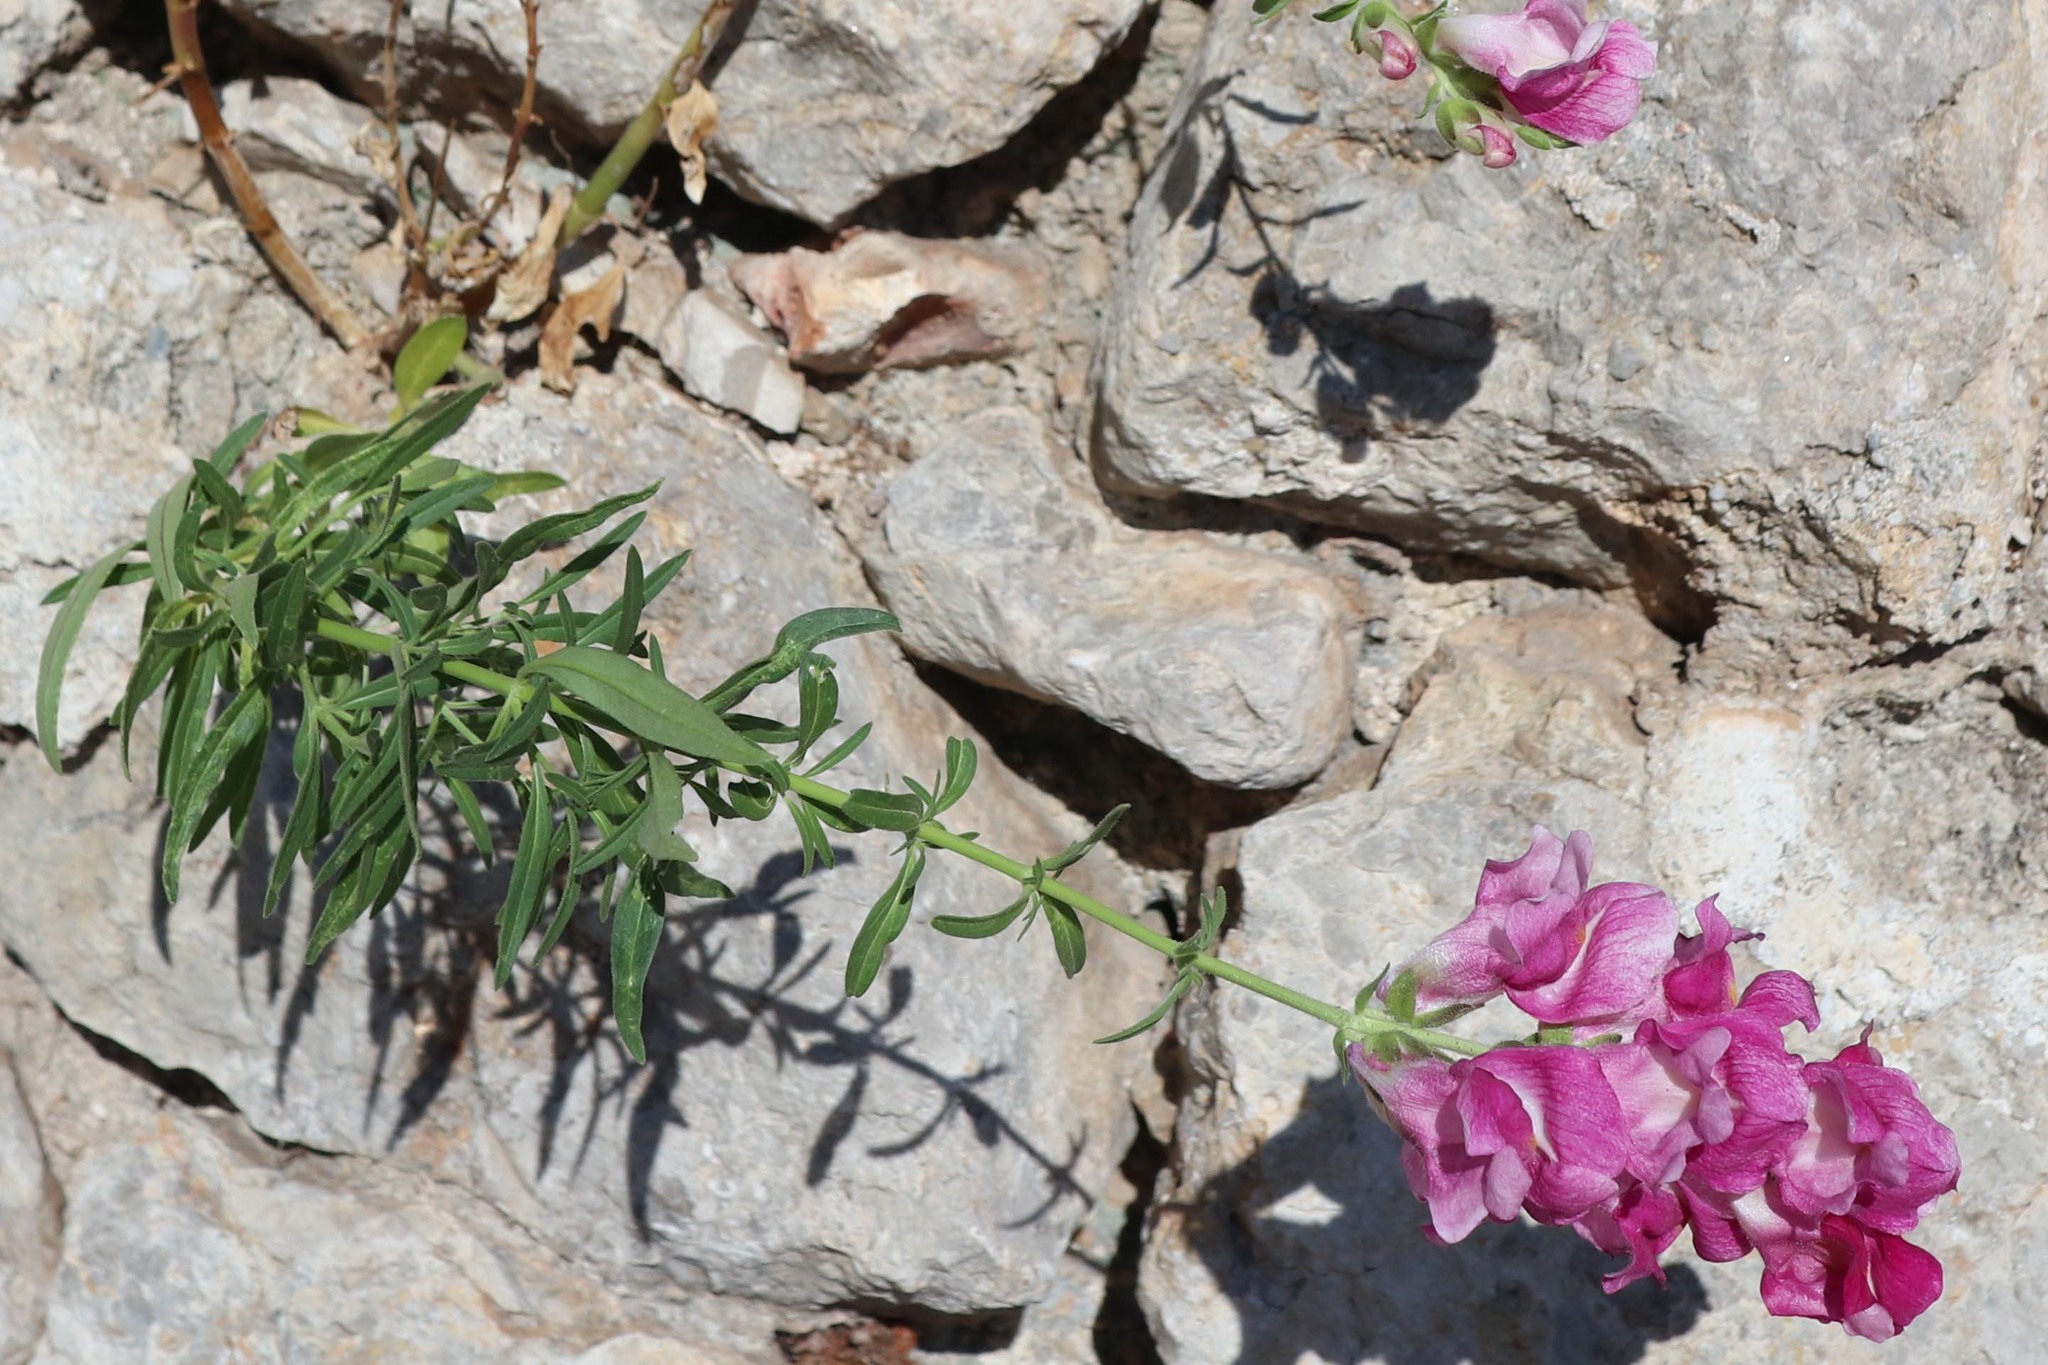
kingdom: Plantae
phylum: Tracheophyta
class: Magnoliopsida
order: Lamiales
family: Plantaginaceae
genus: Antirrhinum
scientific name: Antirrhinum majus
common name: Snapdragon
